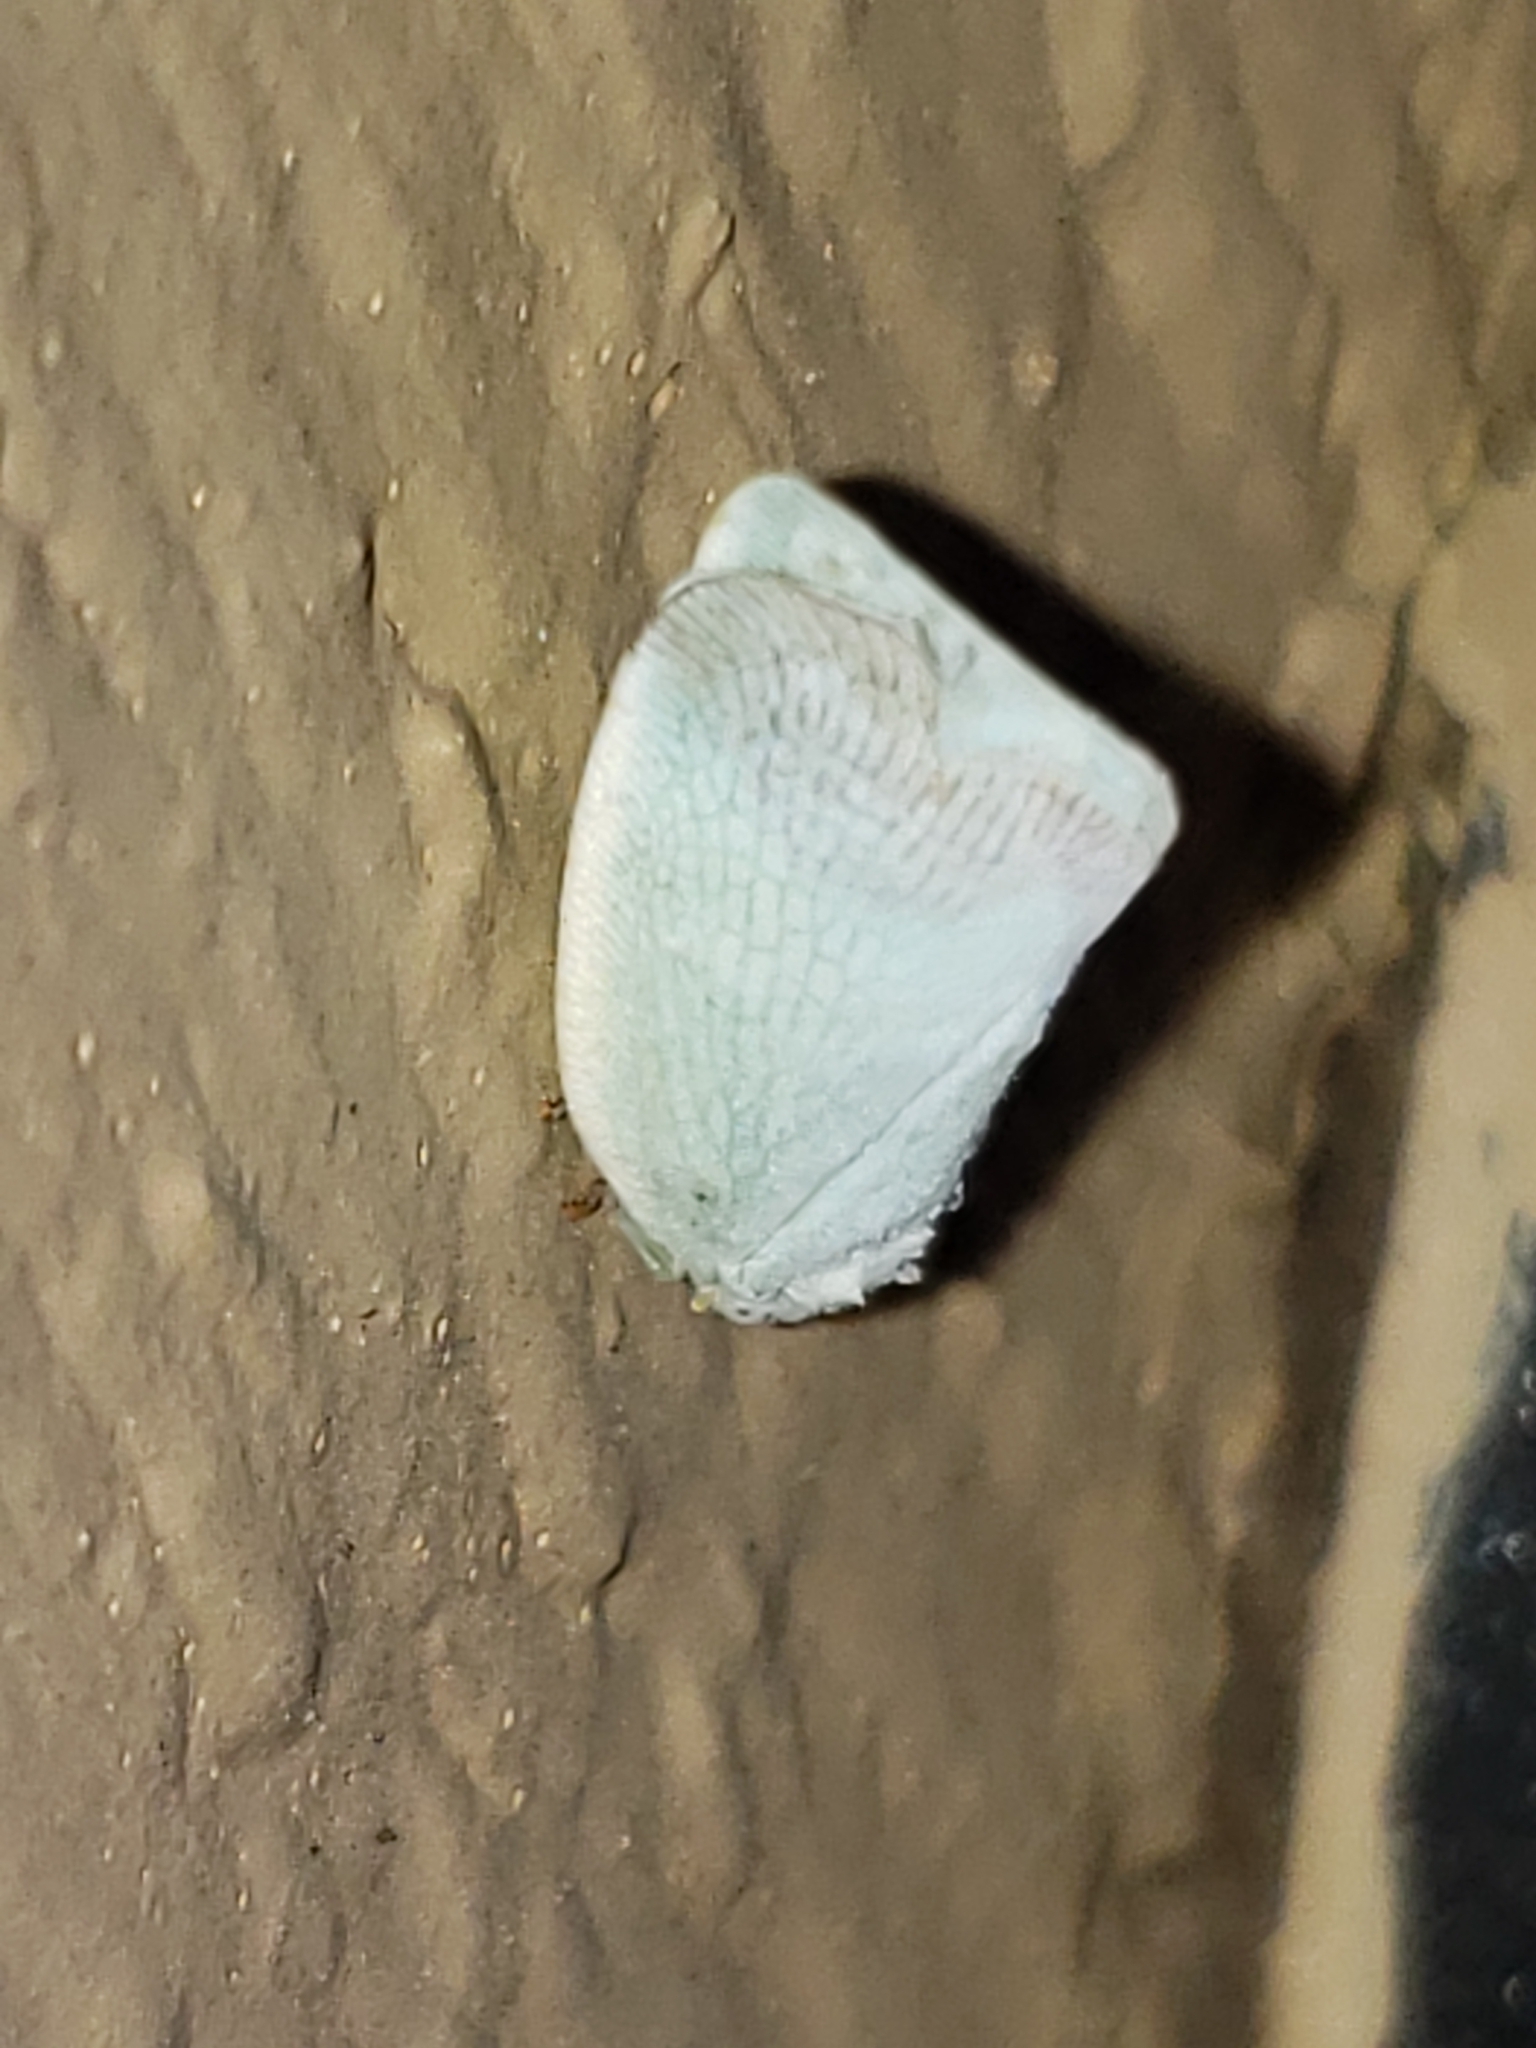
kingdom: Animalia
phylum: Arthropoda
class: Insecta
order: Hemiptera
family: Flatidae
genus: Flatormenis
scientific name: Flatormenis proxima
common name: Northern flatid planthopper
